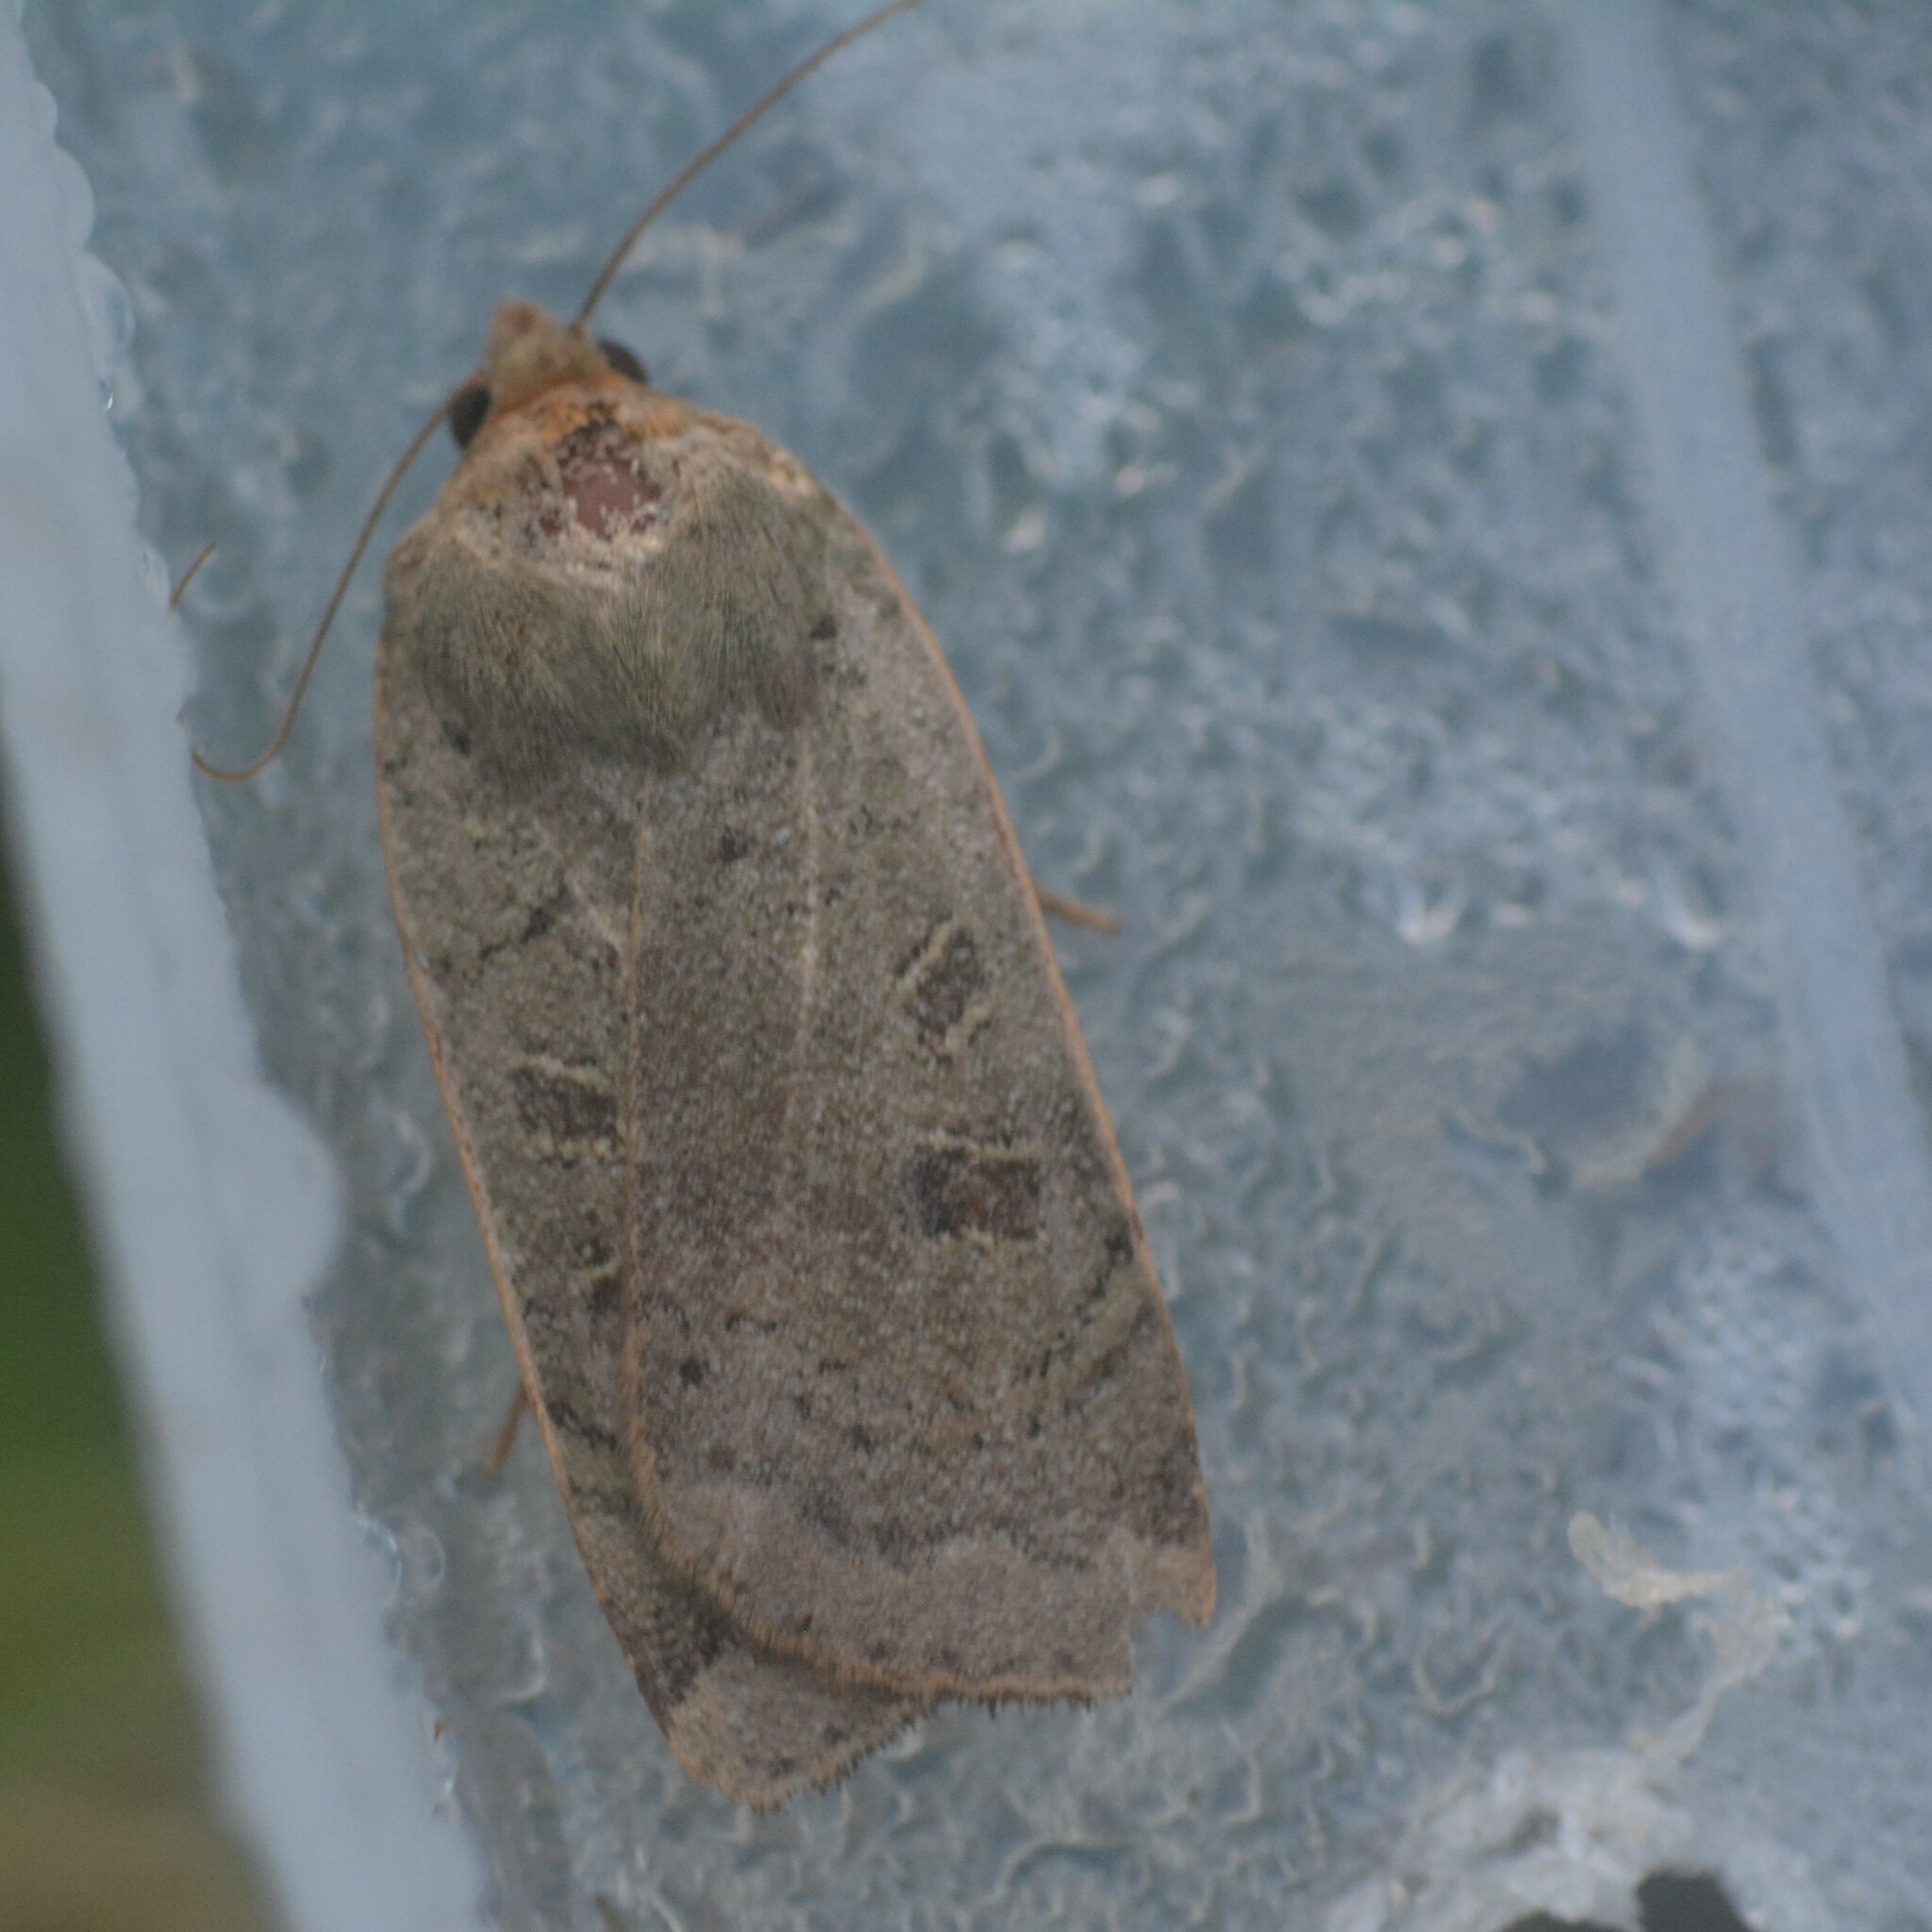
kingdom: Animalia
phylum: Arthropoda
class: Insecta
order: Lepidoptera
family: Noctuidae
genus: Noctua
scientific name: Noctua comes
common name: Lesser yellow underwing
